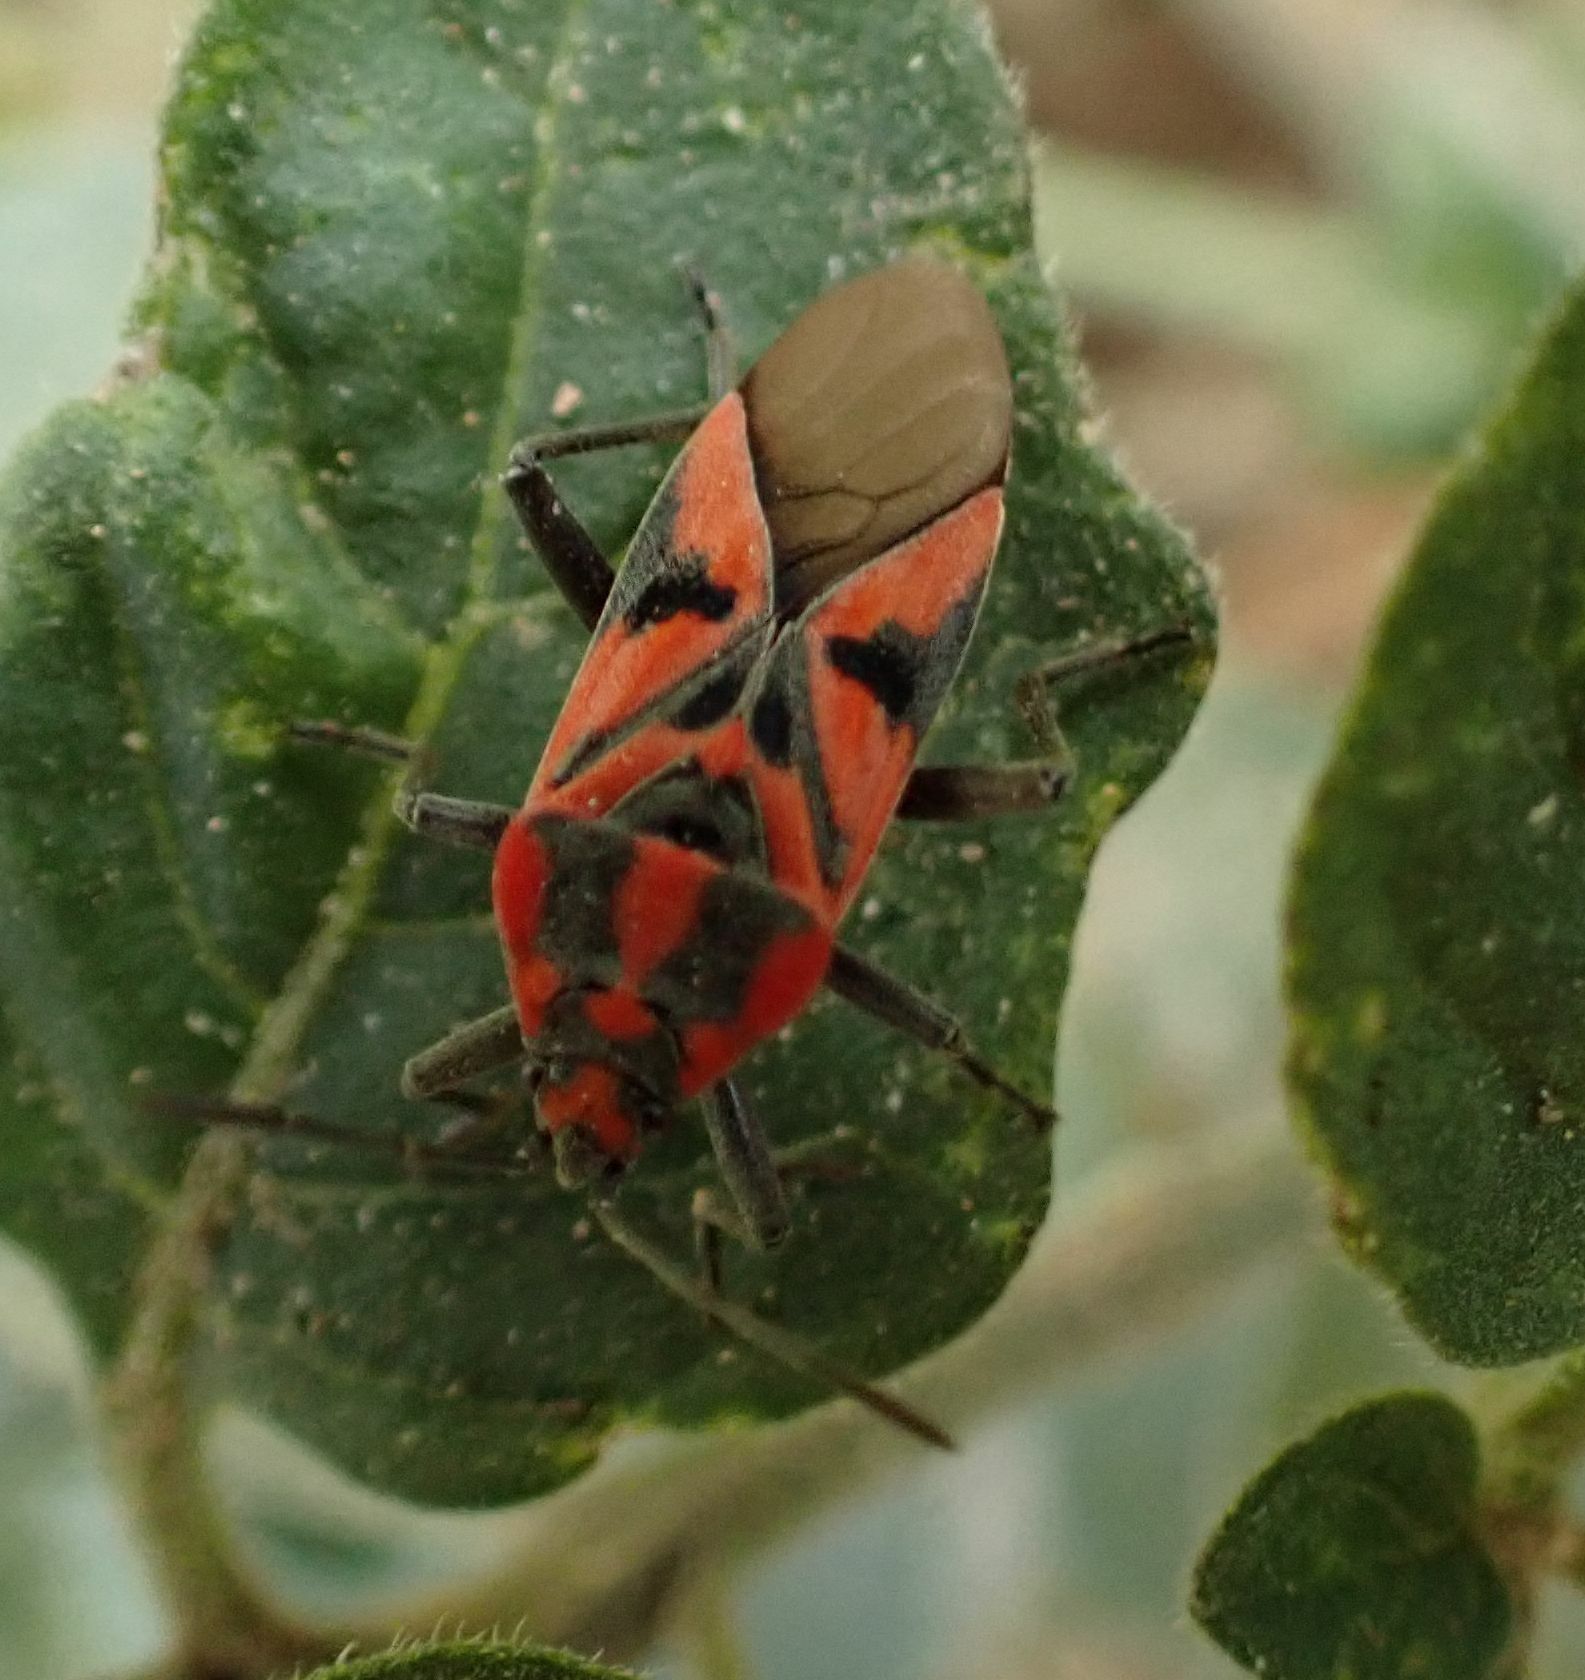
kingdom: Animalia
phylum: Arthropoda
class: Insecta
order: Hemiptera
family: Lygaeidae
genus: Spilostethus
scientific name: Spilostethus furcula
